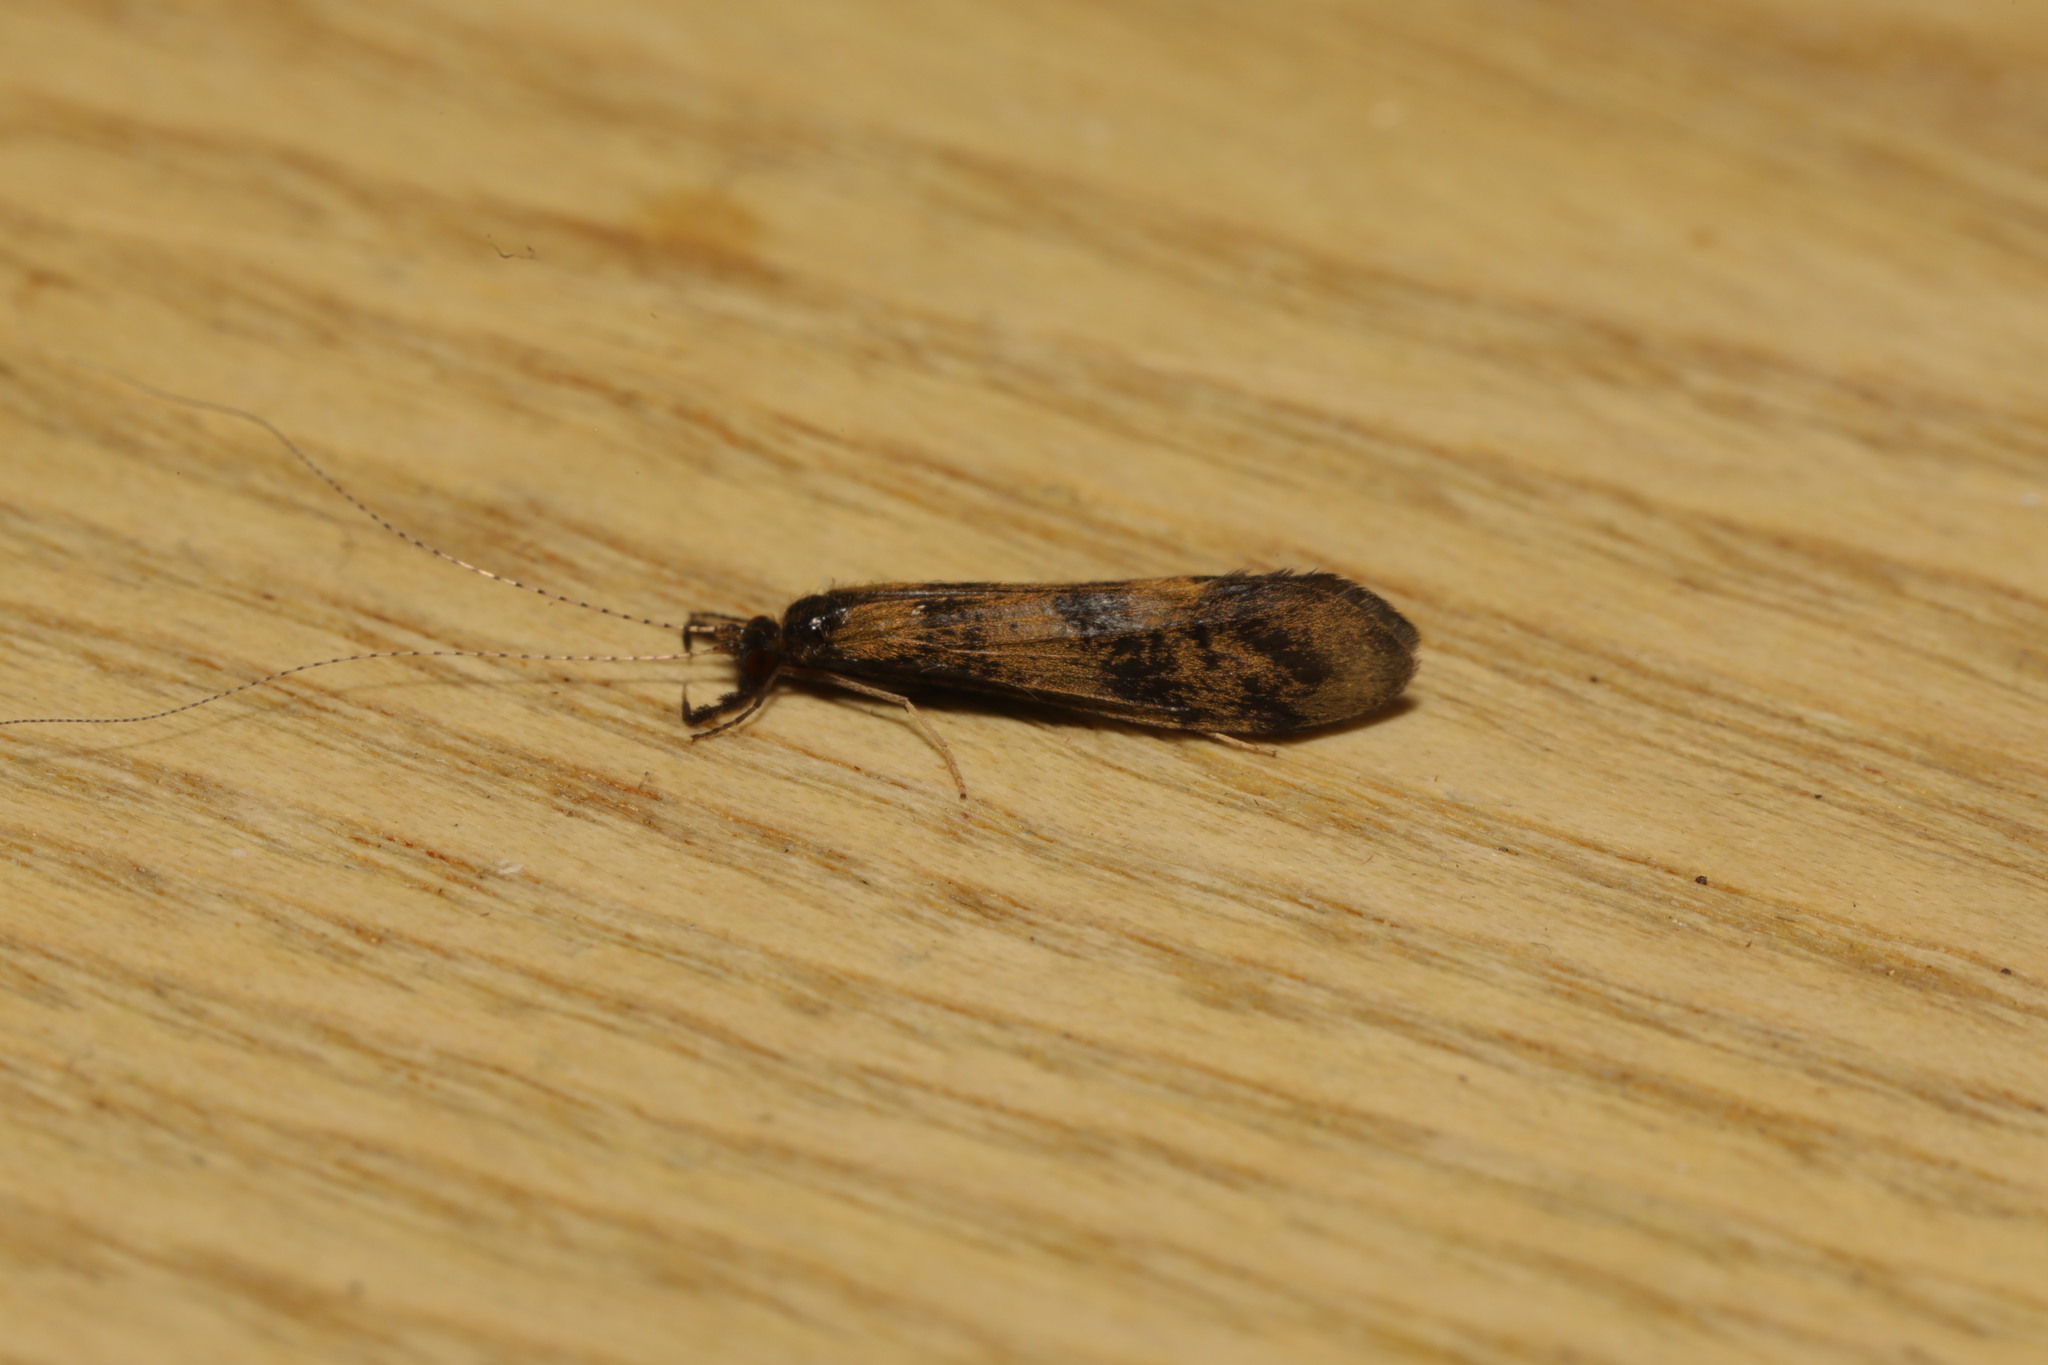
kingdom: Animalia
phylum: Arthropoda
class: Insecta
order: Trichoptera
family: Leptoceridae
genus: Mystacides
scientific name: Mystacides longicornis
